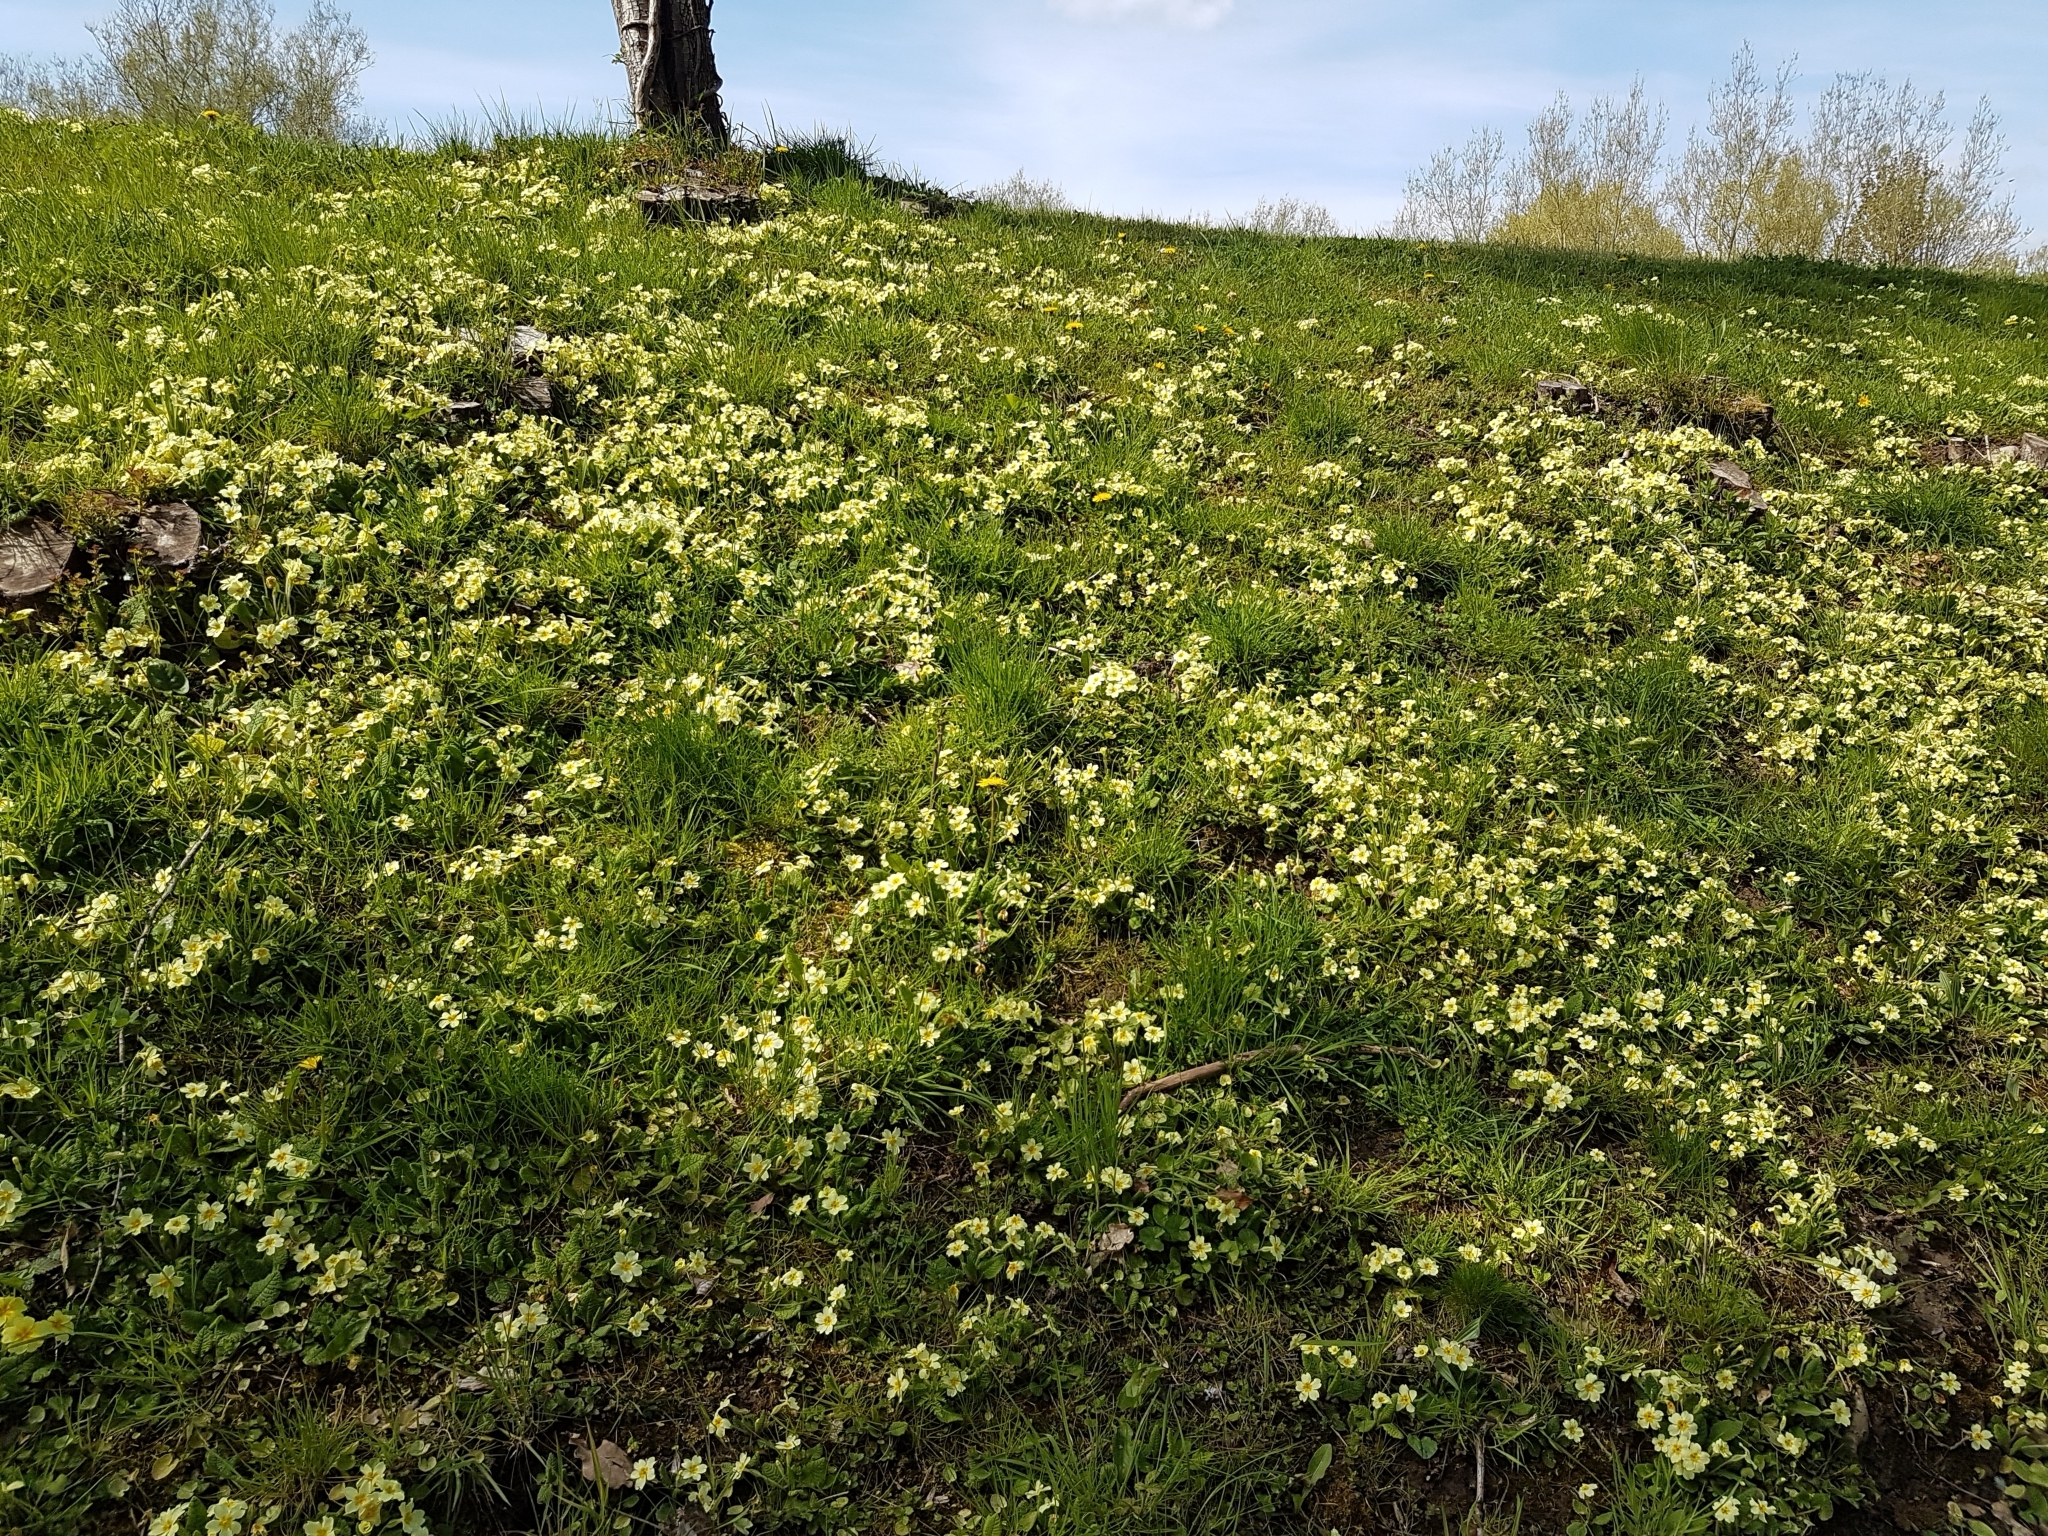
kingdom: Plantae
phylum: Tracheophyta
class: Magnoliopsida
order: Ericales
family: Primulaceae
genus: Primula
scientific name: Primula vulgaris
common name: Primrose
